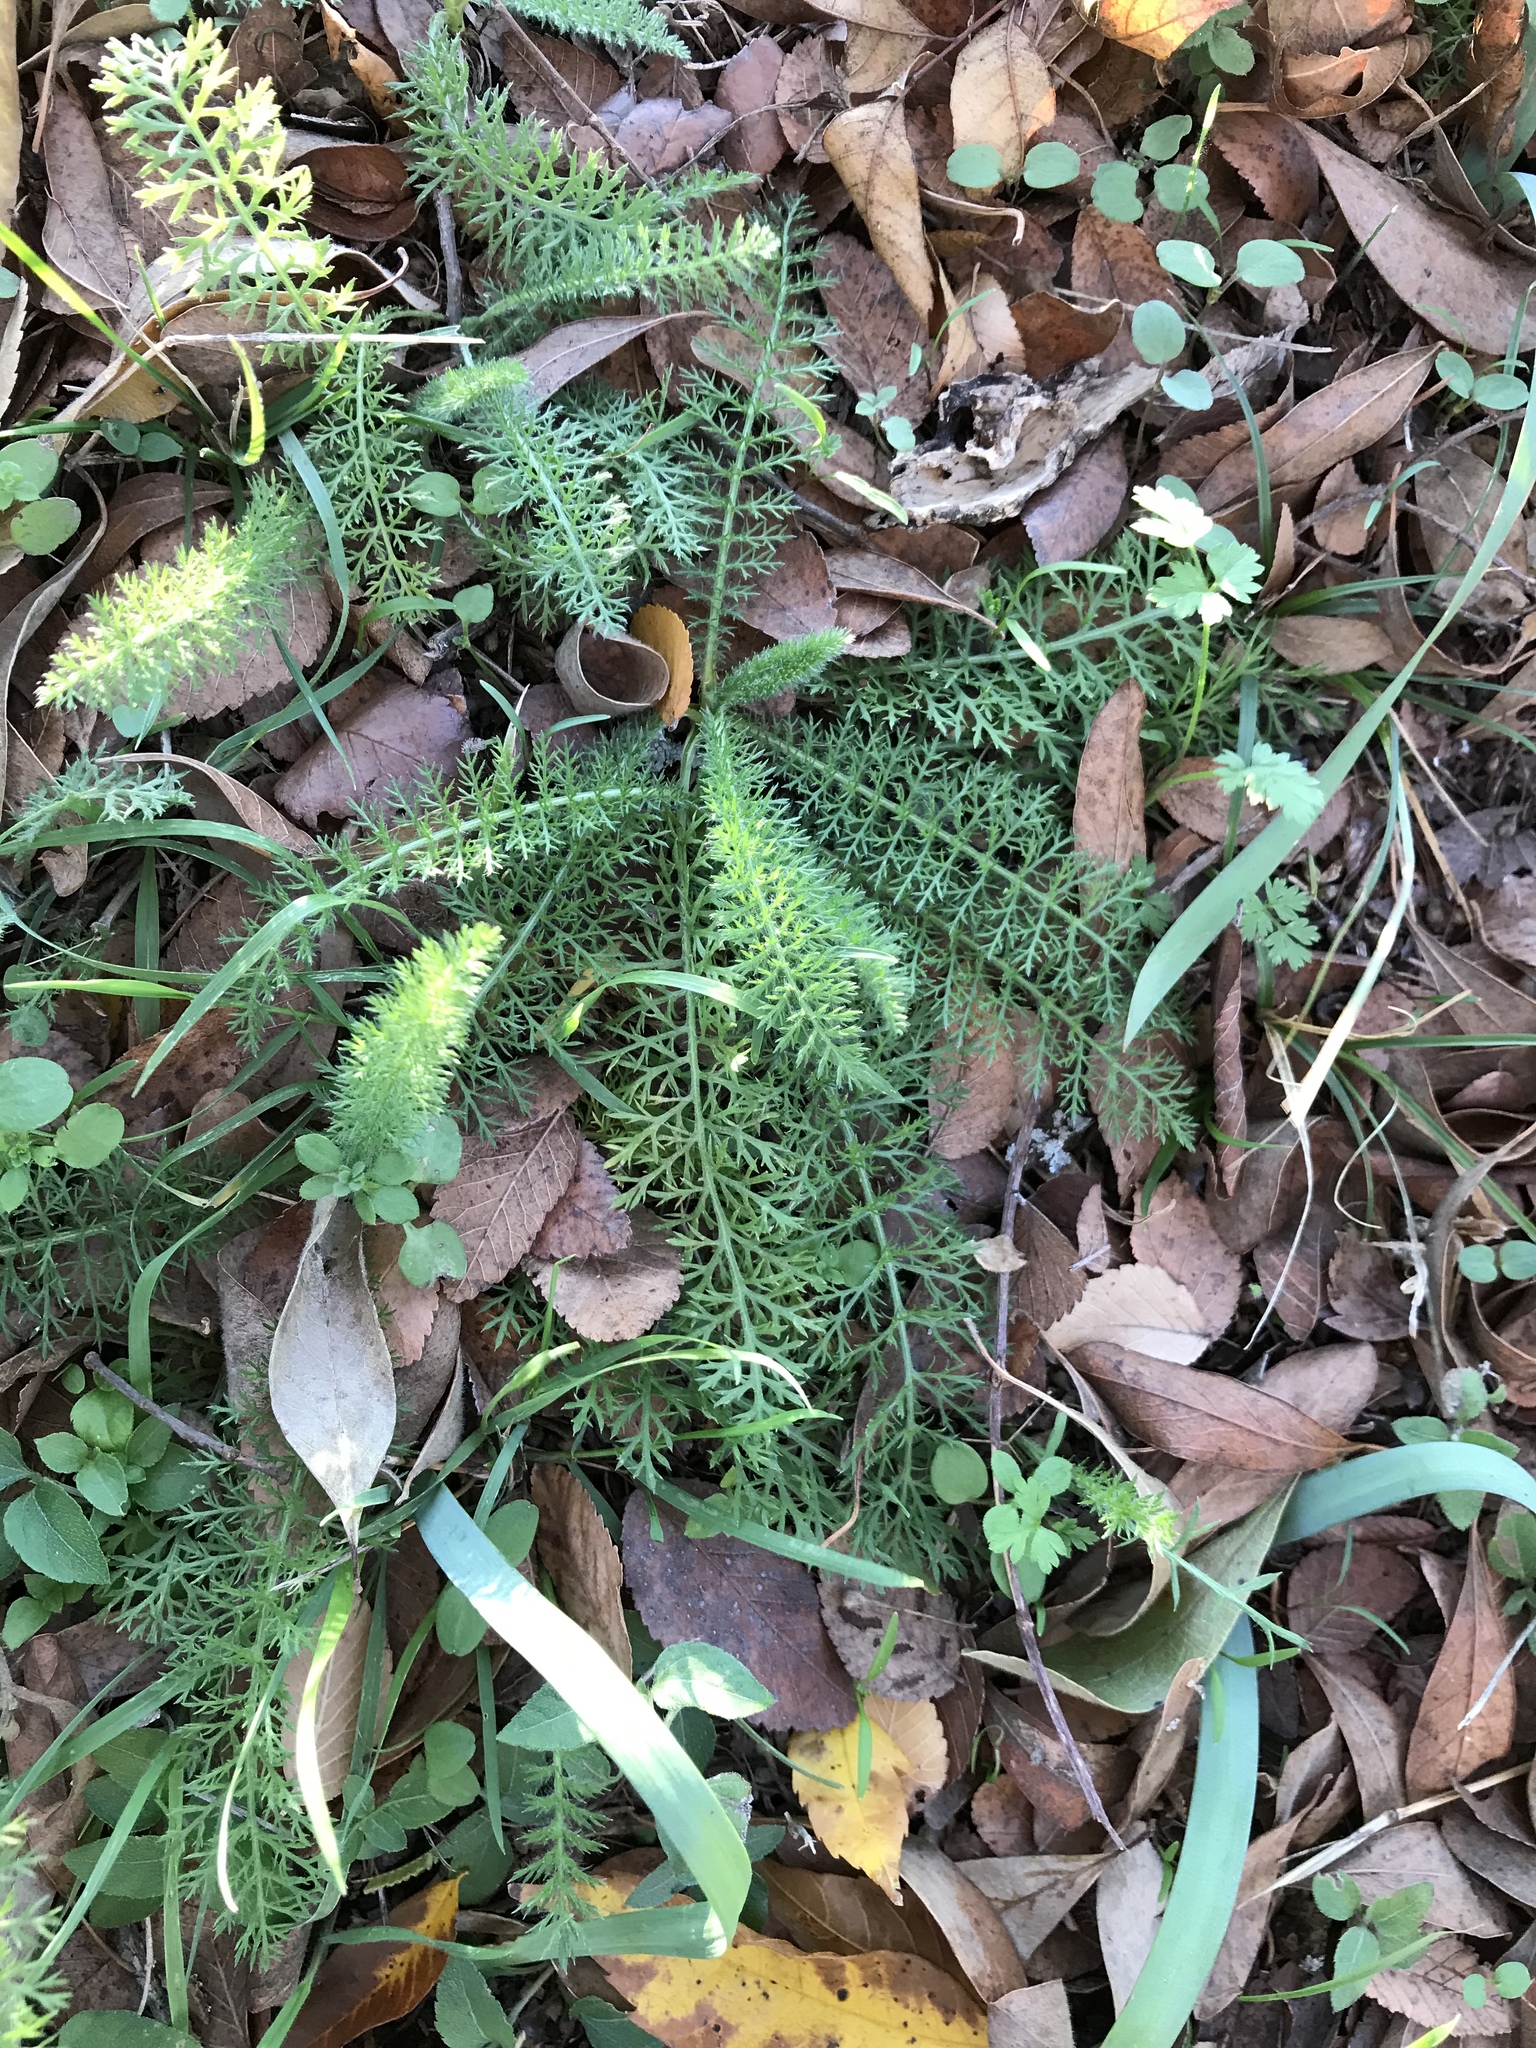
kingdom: Plantae
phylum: Tracheophyta
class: Magnoliopsida
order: Asterales
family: Asteraceae
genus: Achillea
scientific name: Achillea millefolium
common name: Yarrow
